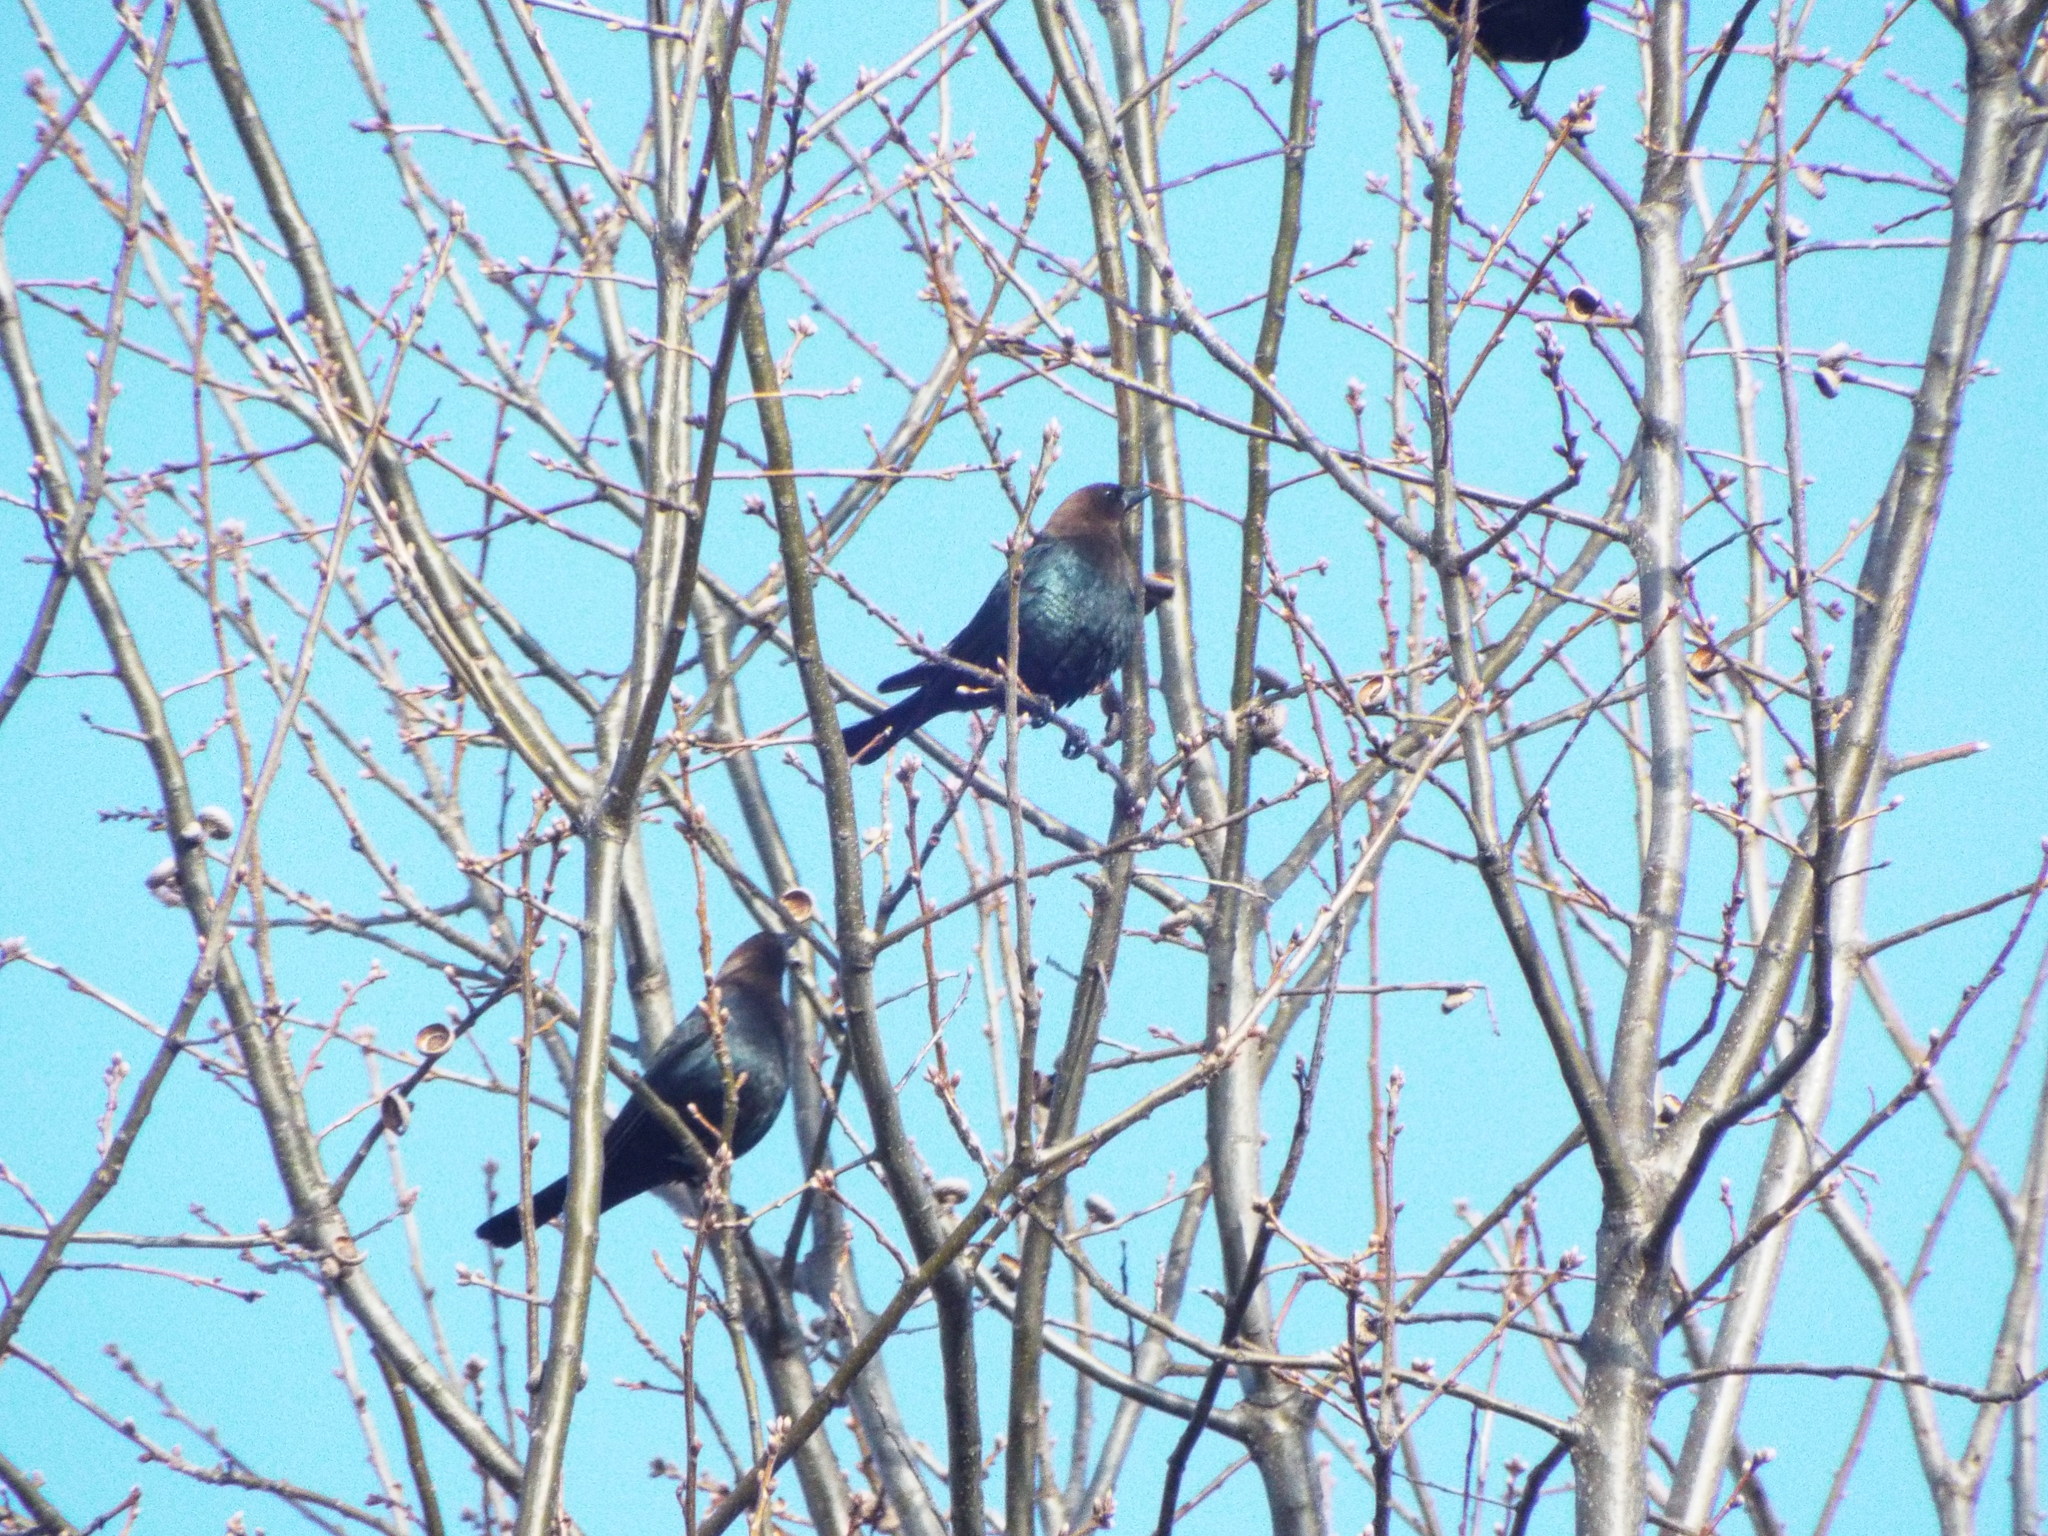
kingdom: Animalia
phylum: Chordata
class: Aves
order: Passeriformes
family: Icteridae
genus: Molothrus
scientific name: Molothrus ater
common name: Brown-headed cowbird
